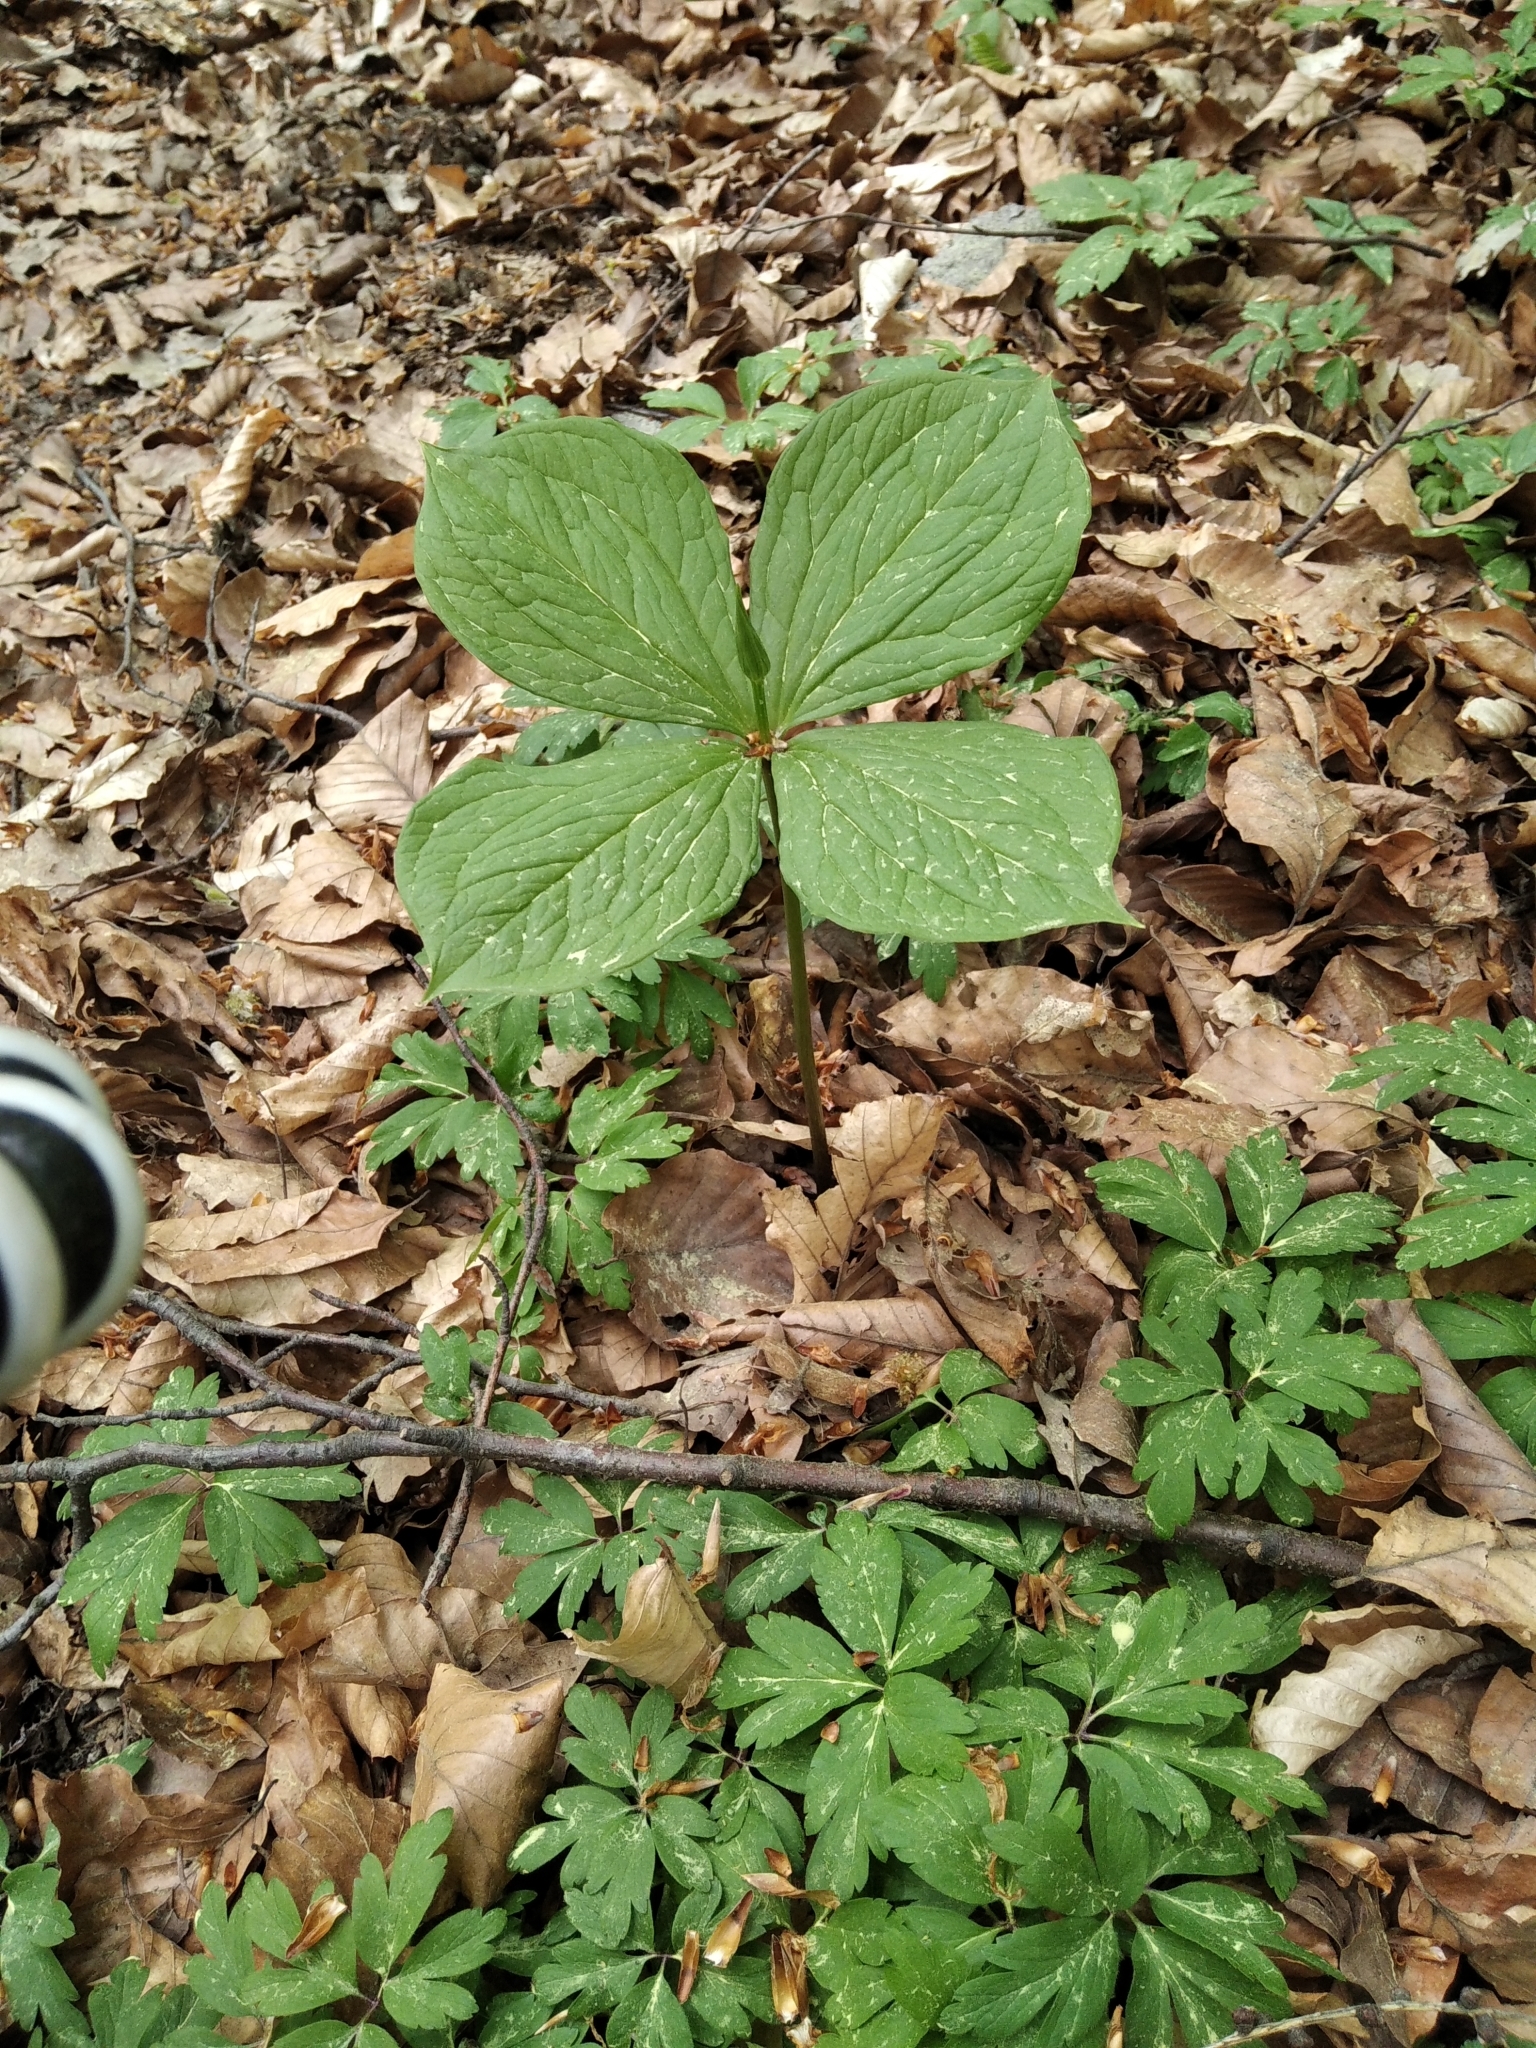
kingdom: Plantae
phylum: Tracheophyta
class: Liliopsida
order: Liliales
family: Melanthiaceae
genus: Paris
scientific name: Paris quadrifolia
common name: Herb-paris
